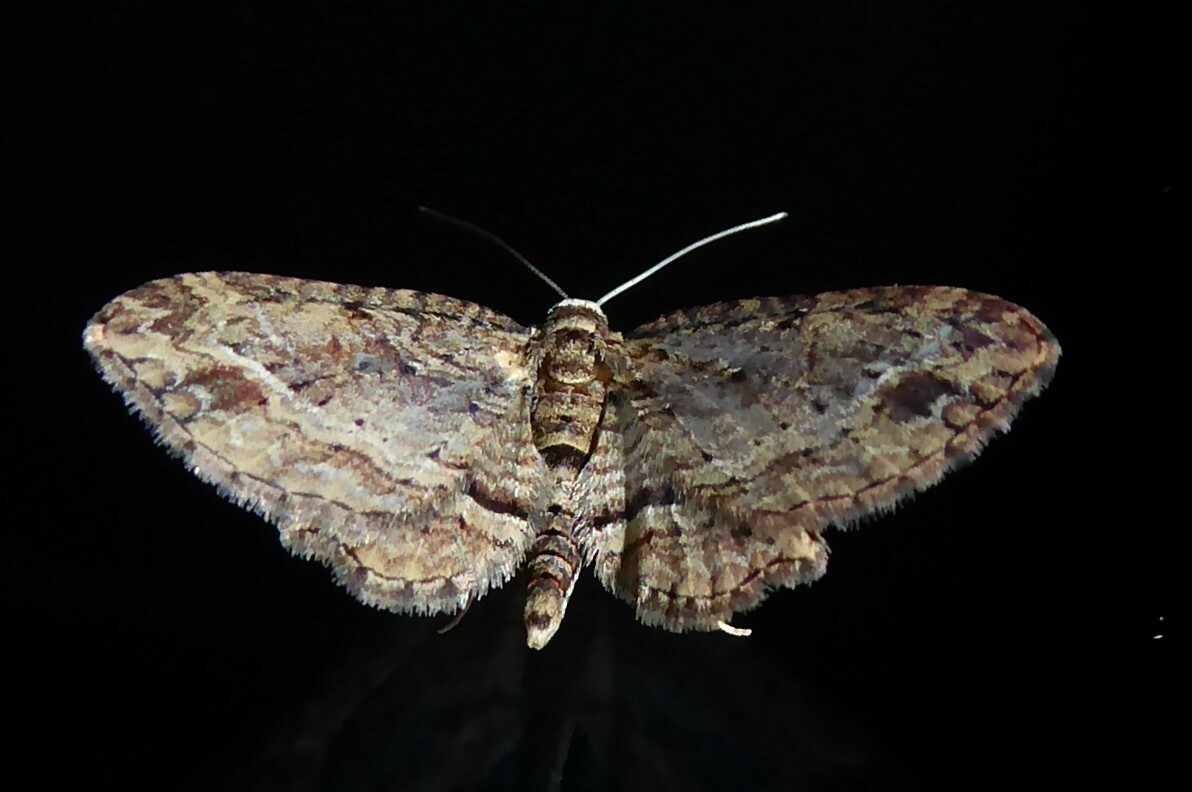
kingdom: Animalia
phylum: Arthropoda
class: Insecta
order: Lepidoptera
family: Geometridae
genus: Chloroclystis
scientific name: Chloroclystis filata
